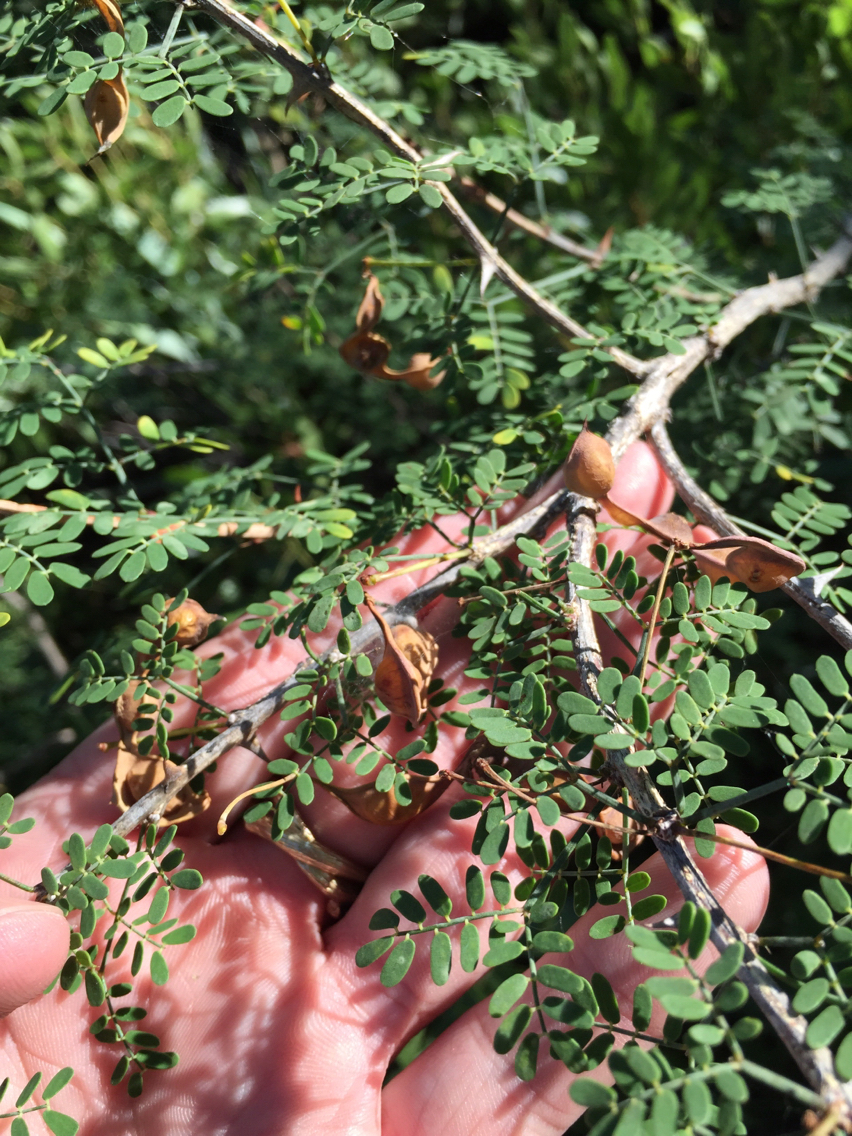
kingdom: Plantae
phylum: Tracheophyta
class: Magnoliopsida
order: Fabales
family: Fabaceae
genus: Mimosa
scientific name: Mimosa borealis
